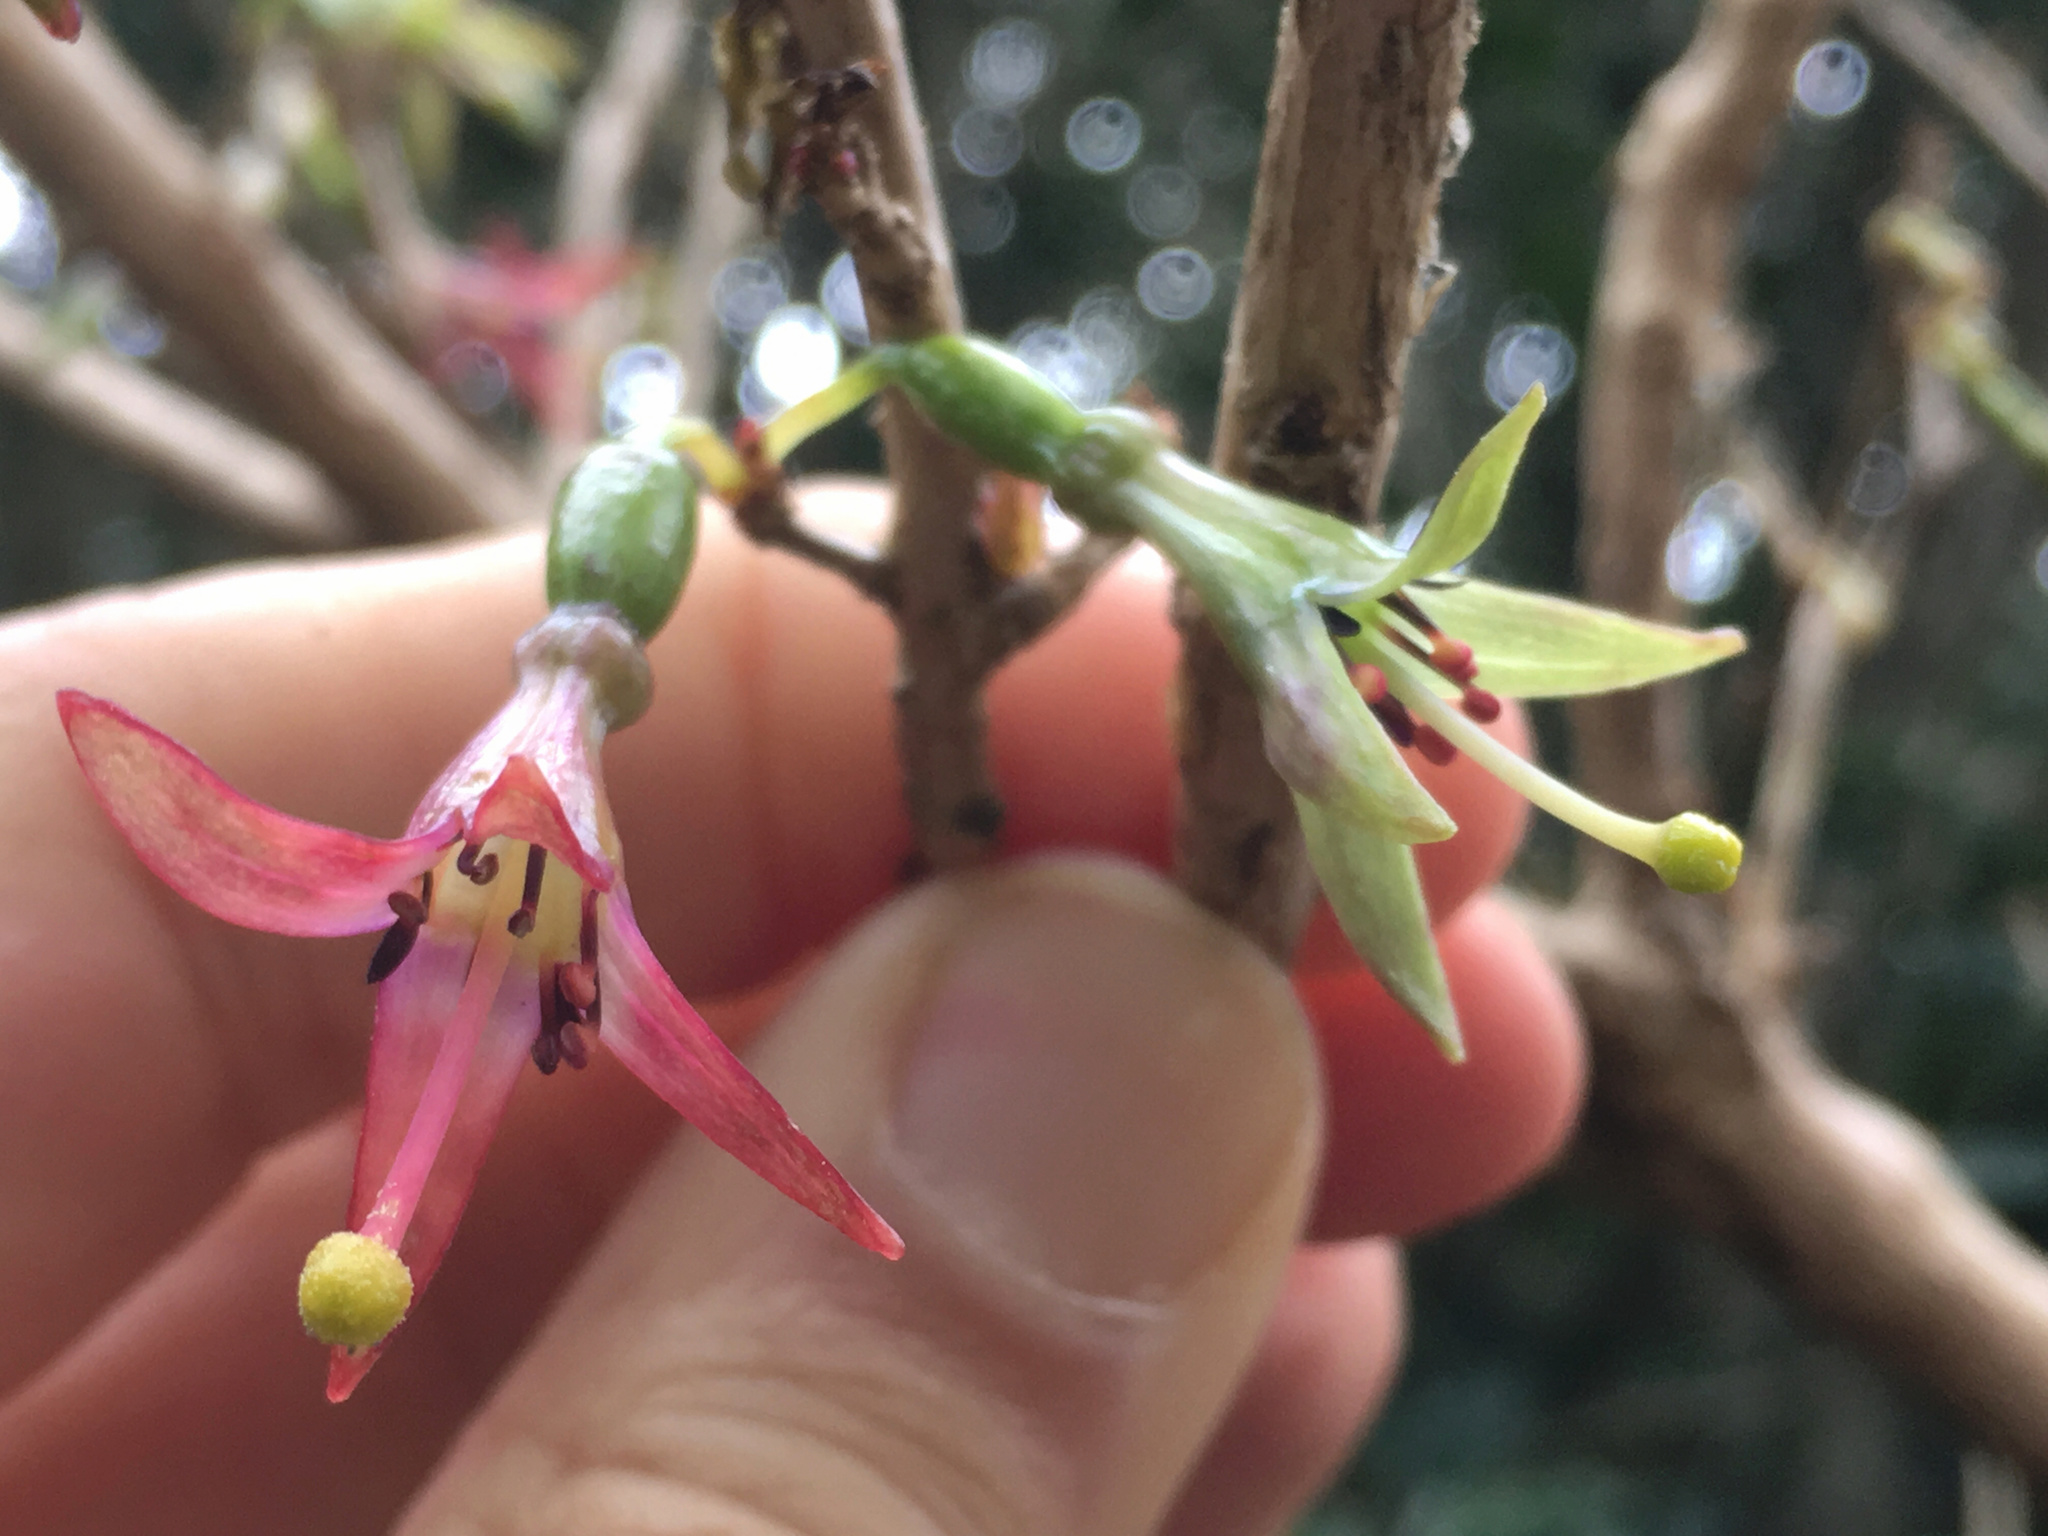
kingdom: Plantae
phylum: Tracheophyta
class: Magnoliopsida
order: Myrtales
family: Onagraceae
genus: Fuchsia
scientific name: Fuchsia excorticata
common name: Tree fuchsia
